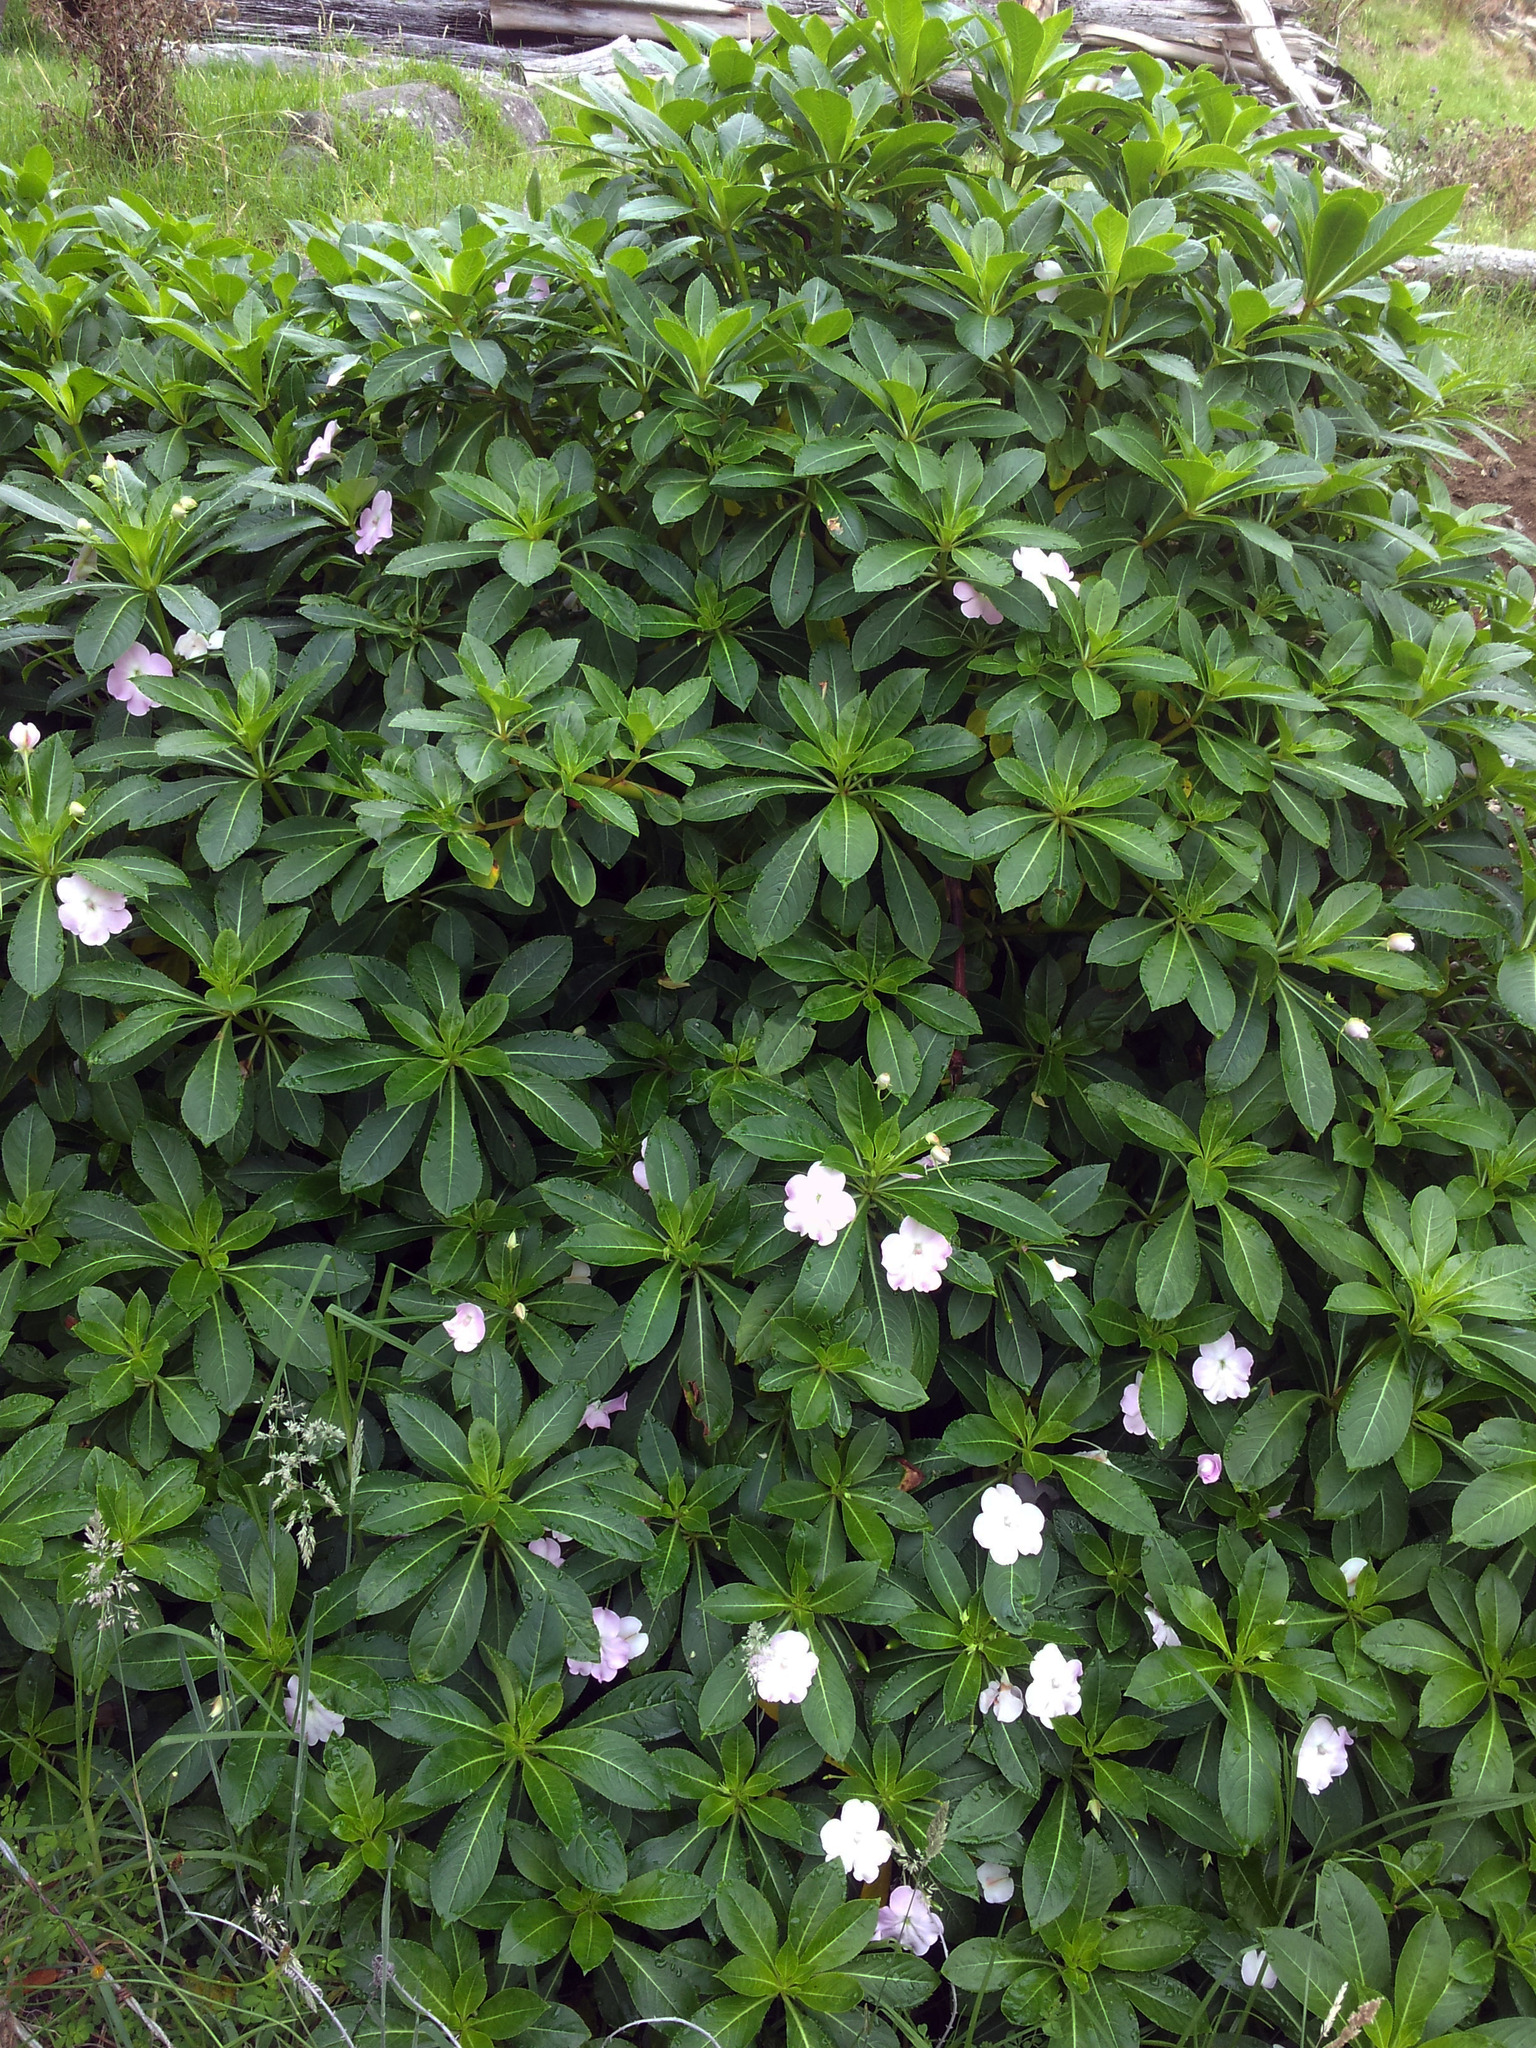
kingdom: Plantae
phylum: Tracheophyta
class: Magnoliopsida
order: Ericales
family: Balsaminaceae
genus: Impatiens
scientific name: Impatiens sodenii
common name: Oliver's touch-me-not
